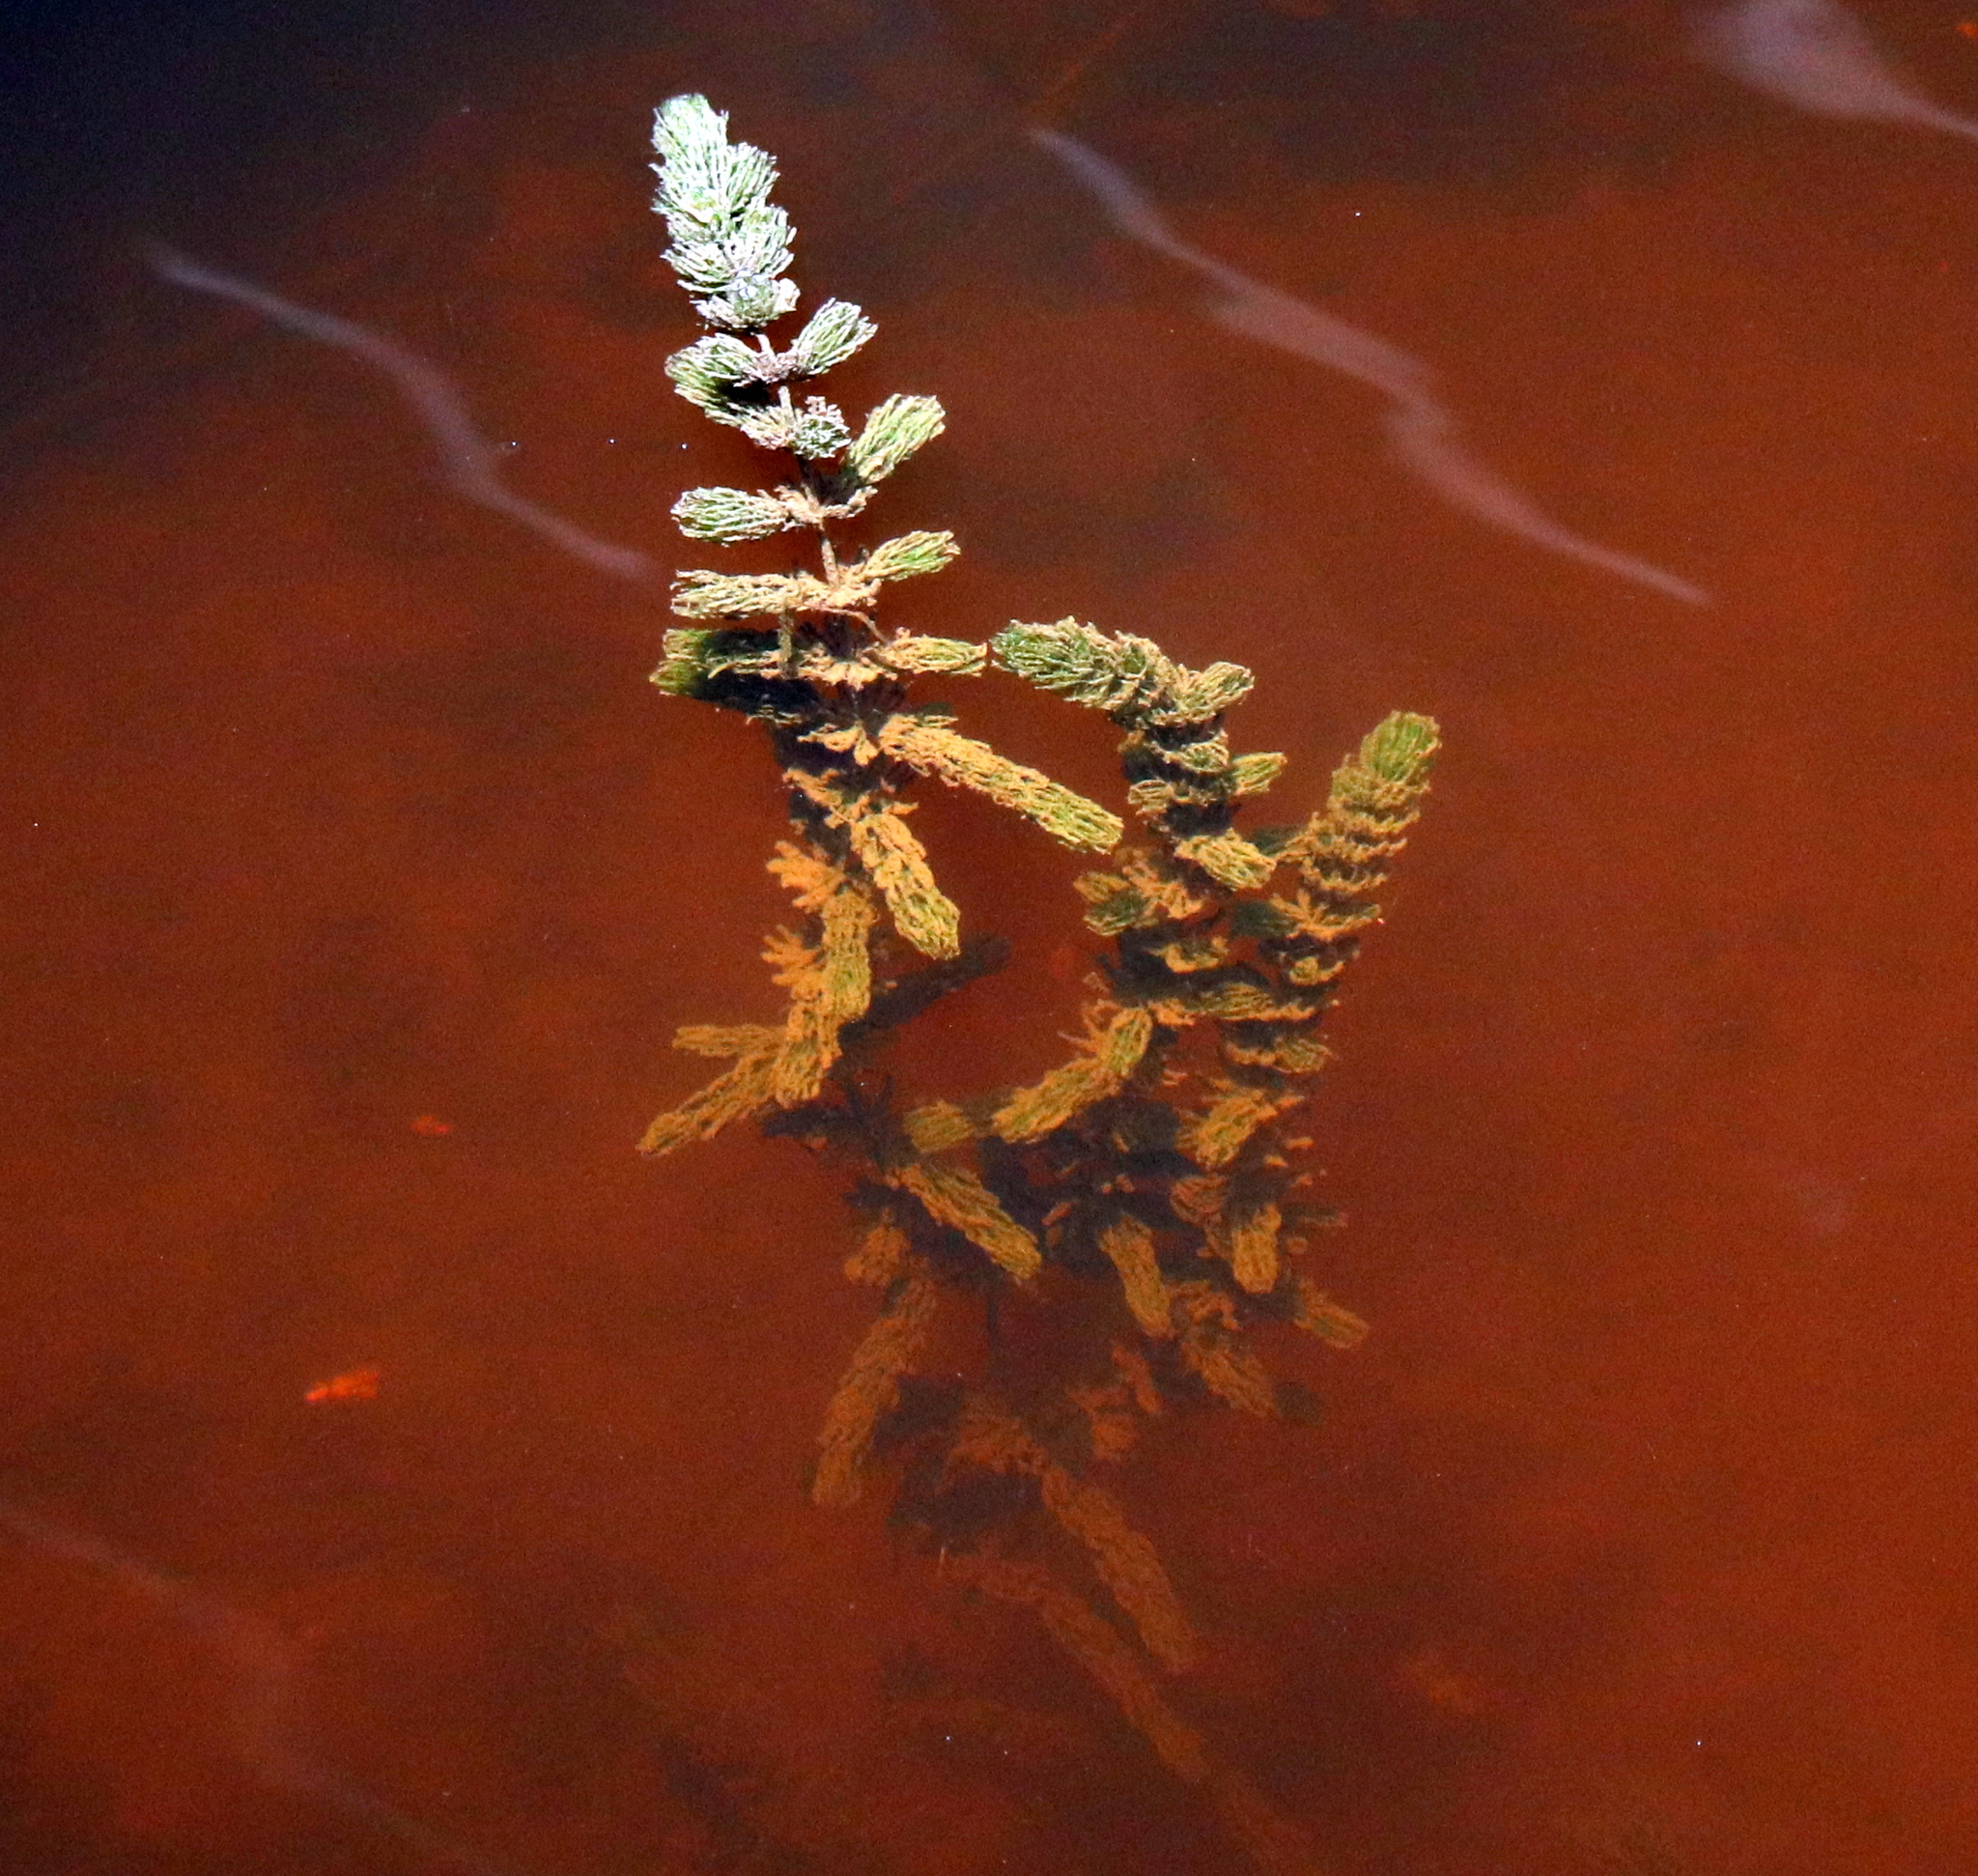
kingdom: Plantae
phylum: Tracheophyta
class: Magnoliopsida
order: Ceratophyllales
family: Ceratophyllaceae
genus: Ceratophyllum
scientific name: Ceratophyllum demersum
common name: Rigid hornwort
